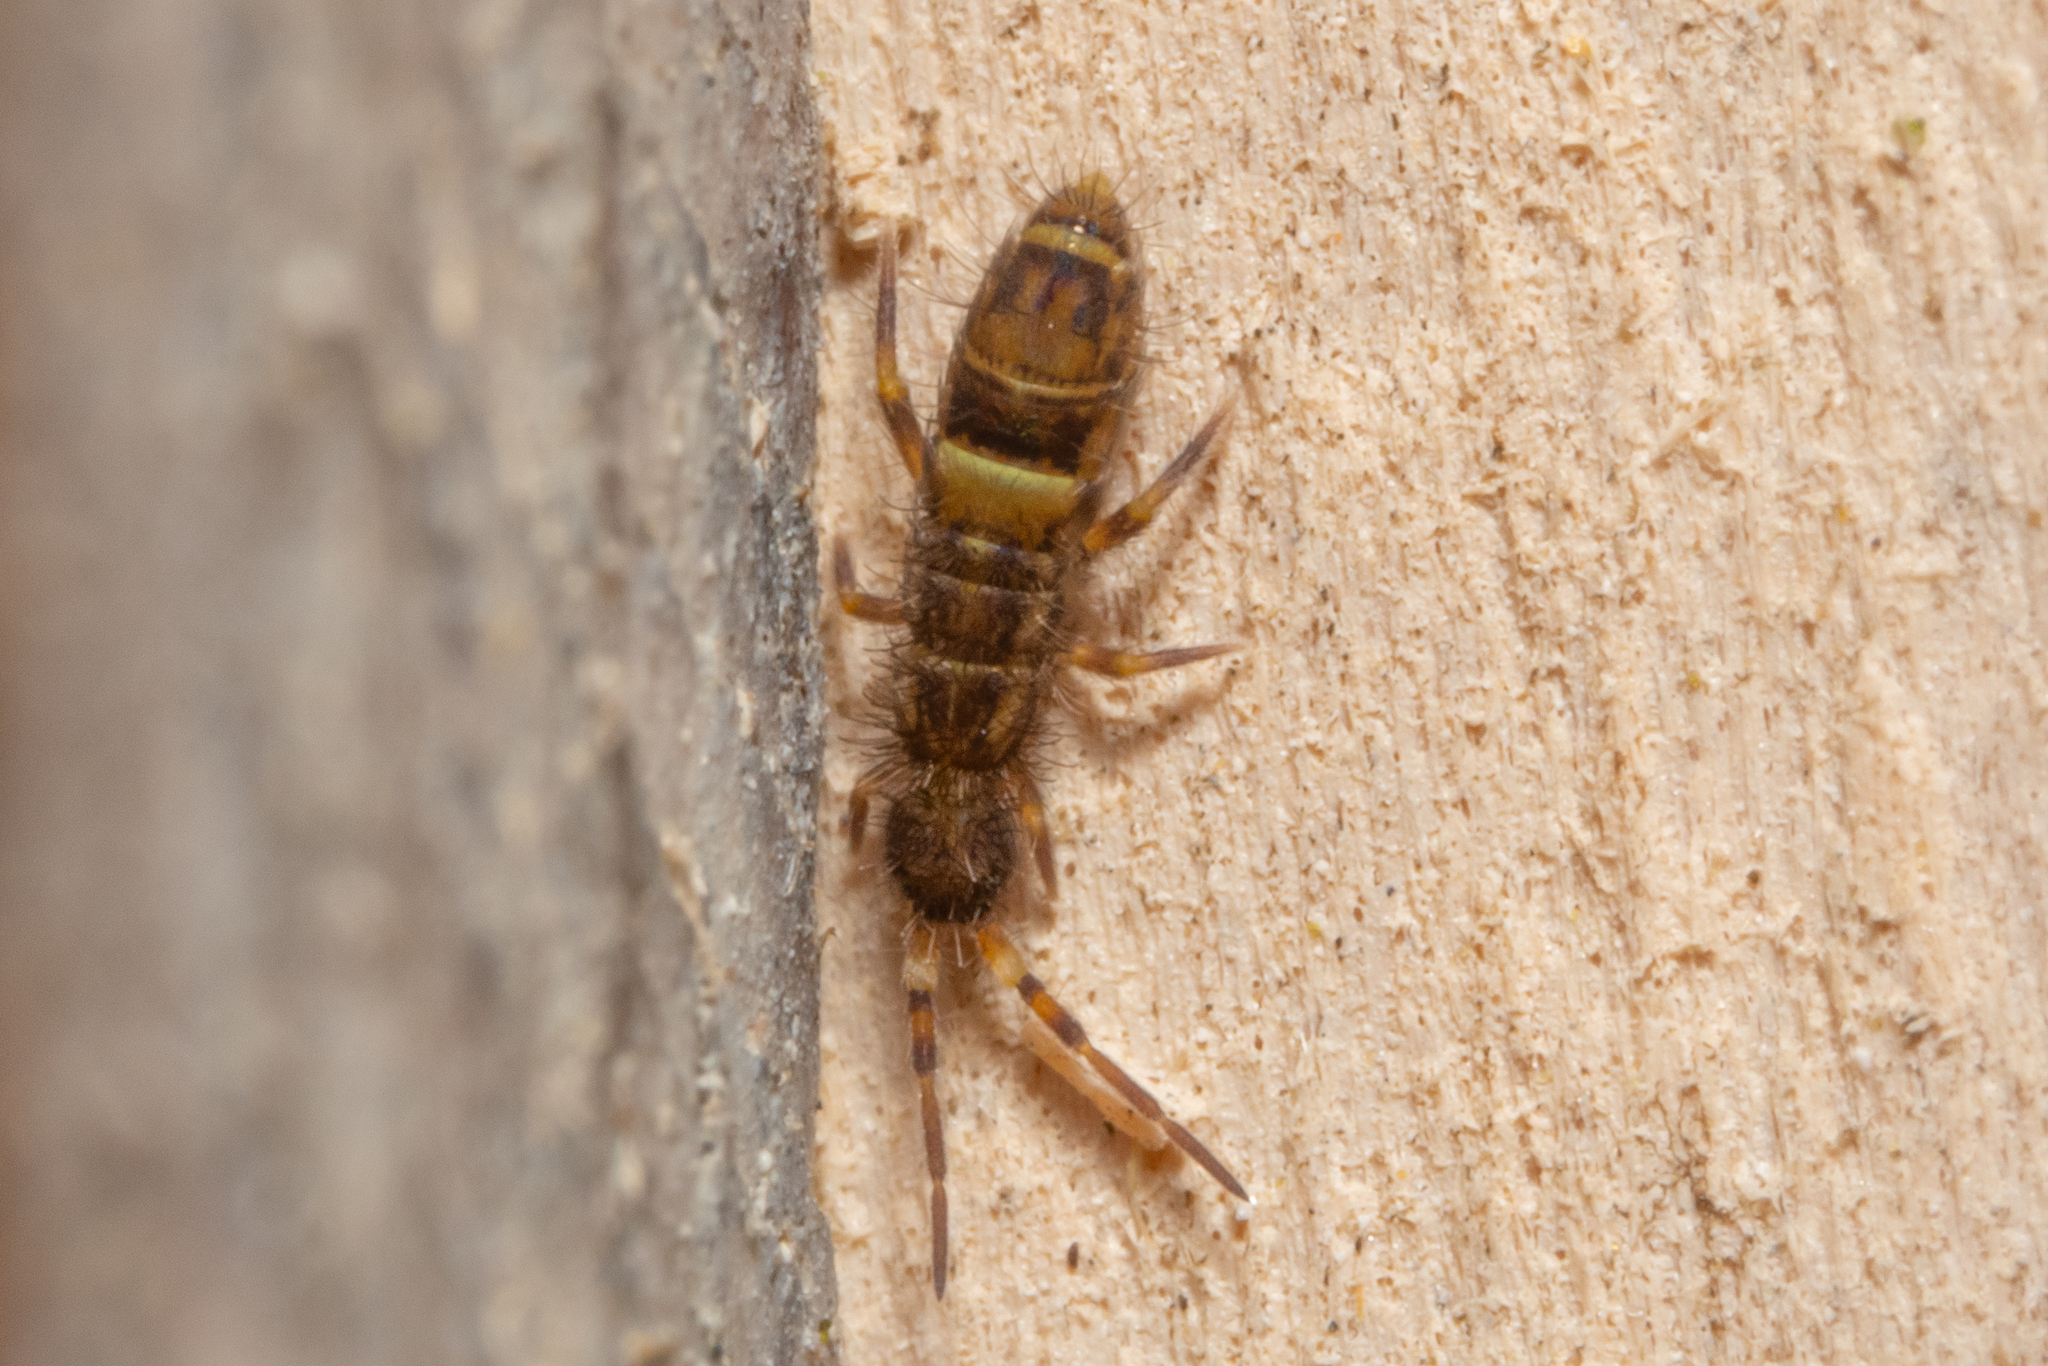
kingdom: Animalia
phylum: Arthropoda
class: Collembola
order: Entomobryomorpha
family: Orchesellidae
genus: Orchesella
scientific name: Orchesella cincta
